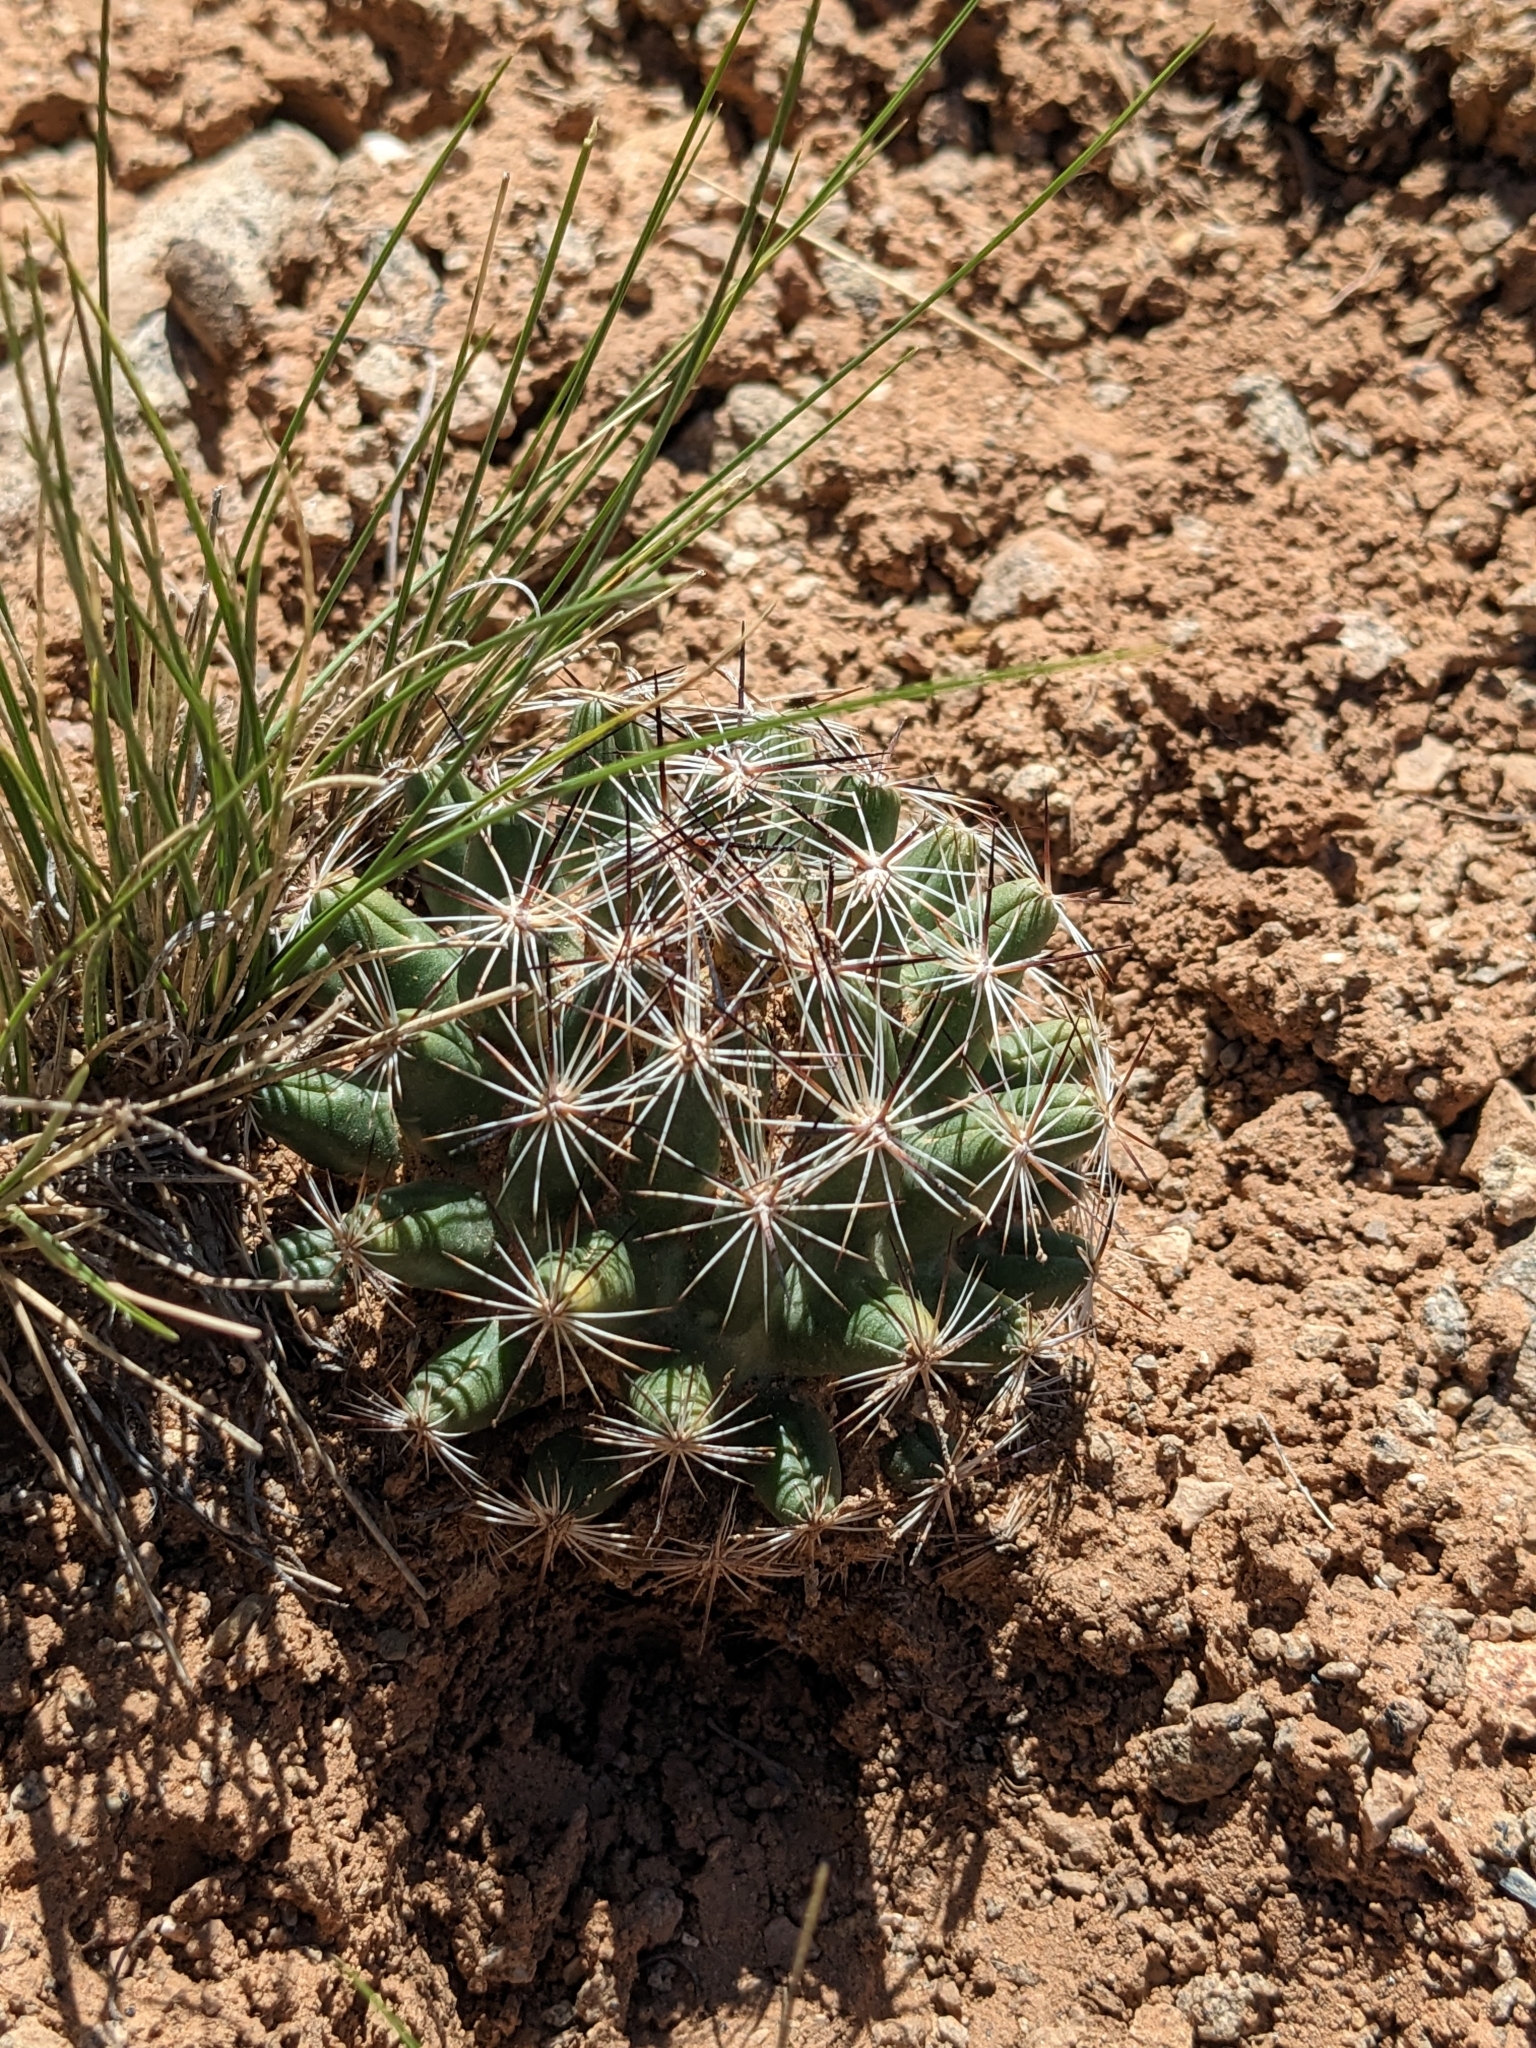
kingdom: Plantae
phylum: Tracheophyta
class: Magnoliopsida
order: Caryophyllales
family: Cactaceae
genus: Pelecyphora
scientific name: Pelecyphora vivipara
